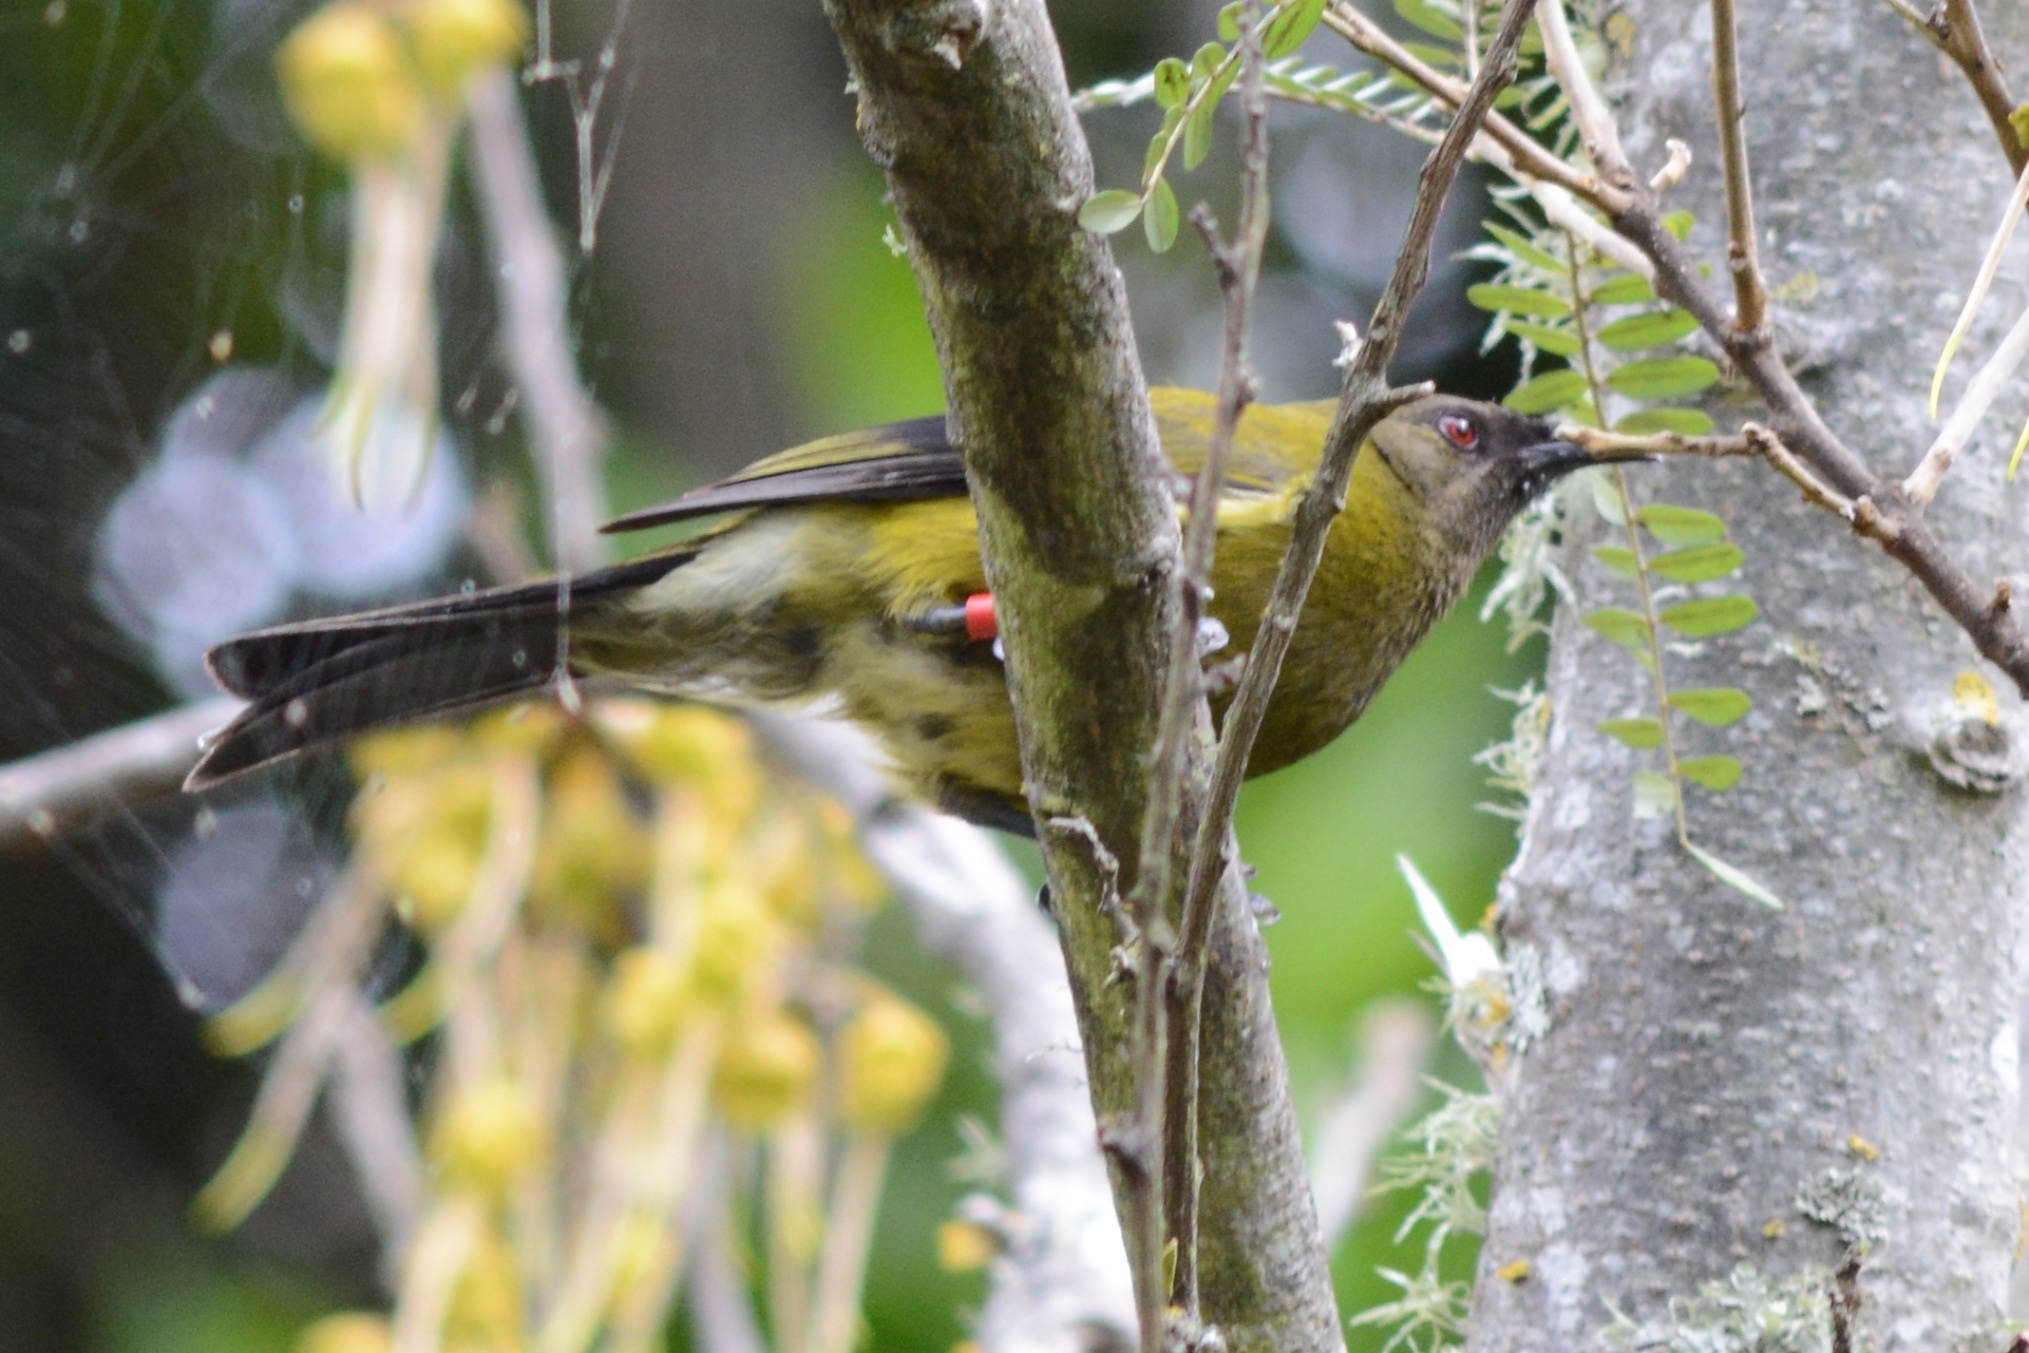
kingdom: Animalia
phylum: Chordata
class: Aves
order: Passeriformes
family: Meliphagidae
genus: Anthornis
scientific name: Anthornis melanura
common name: New zealand bellbird
